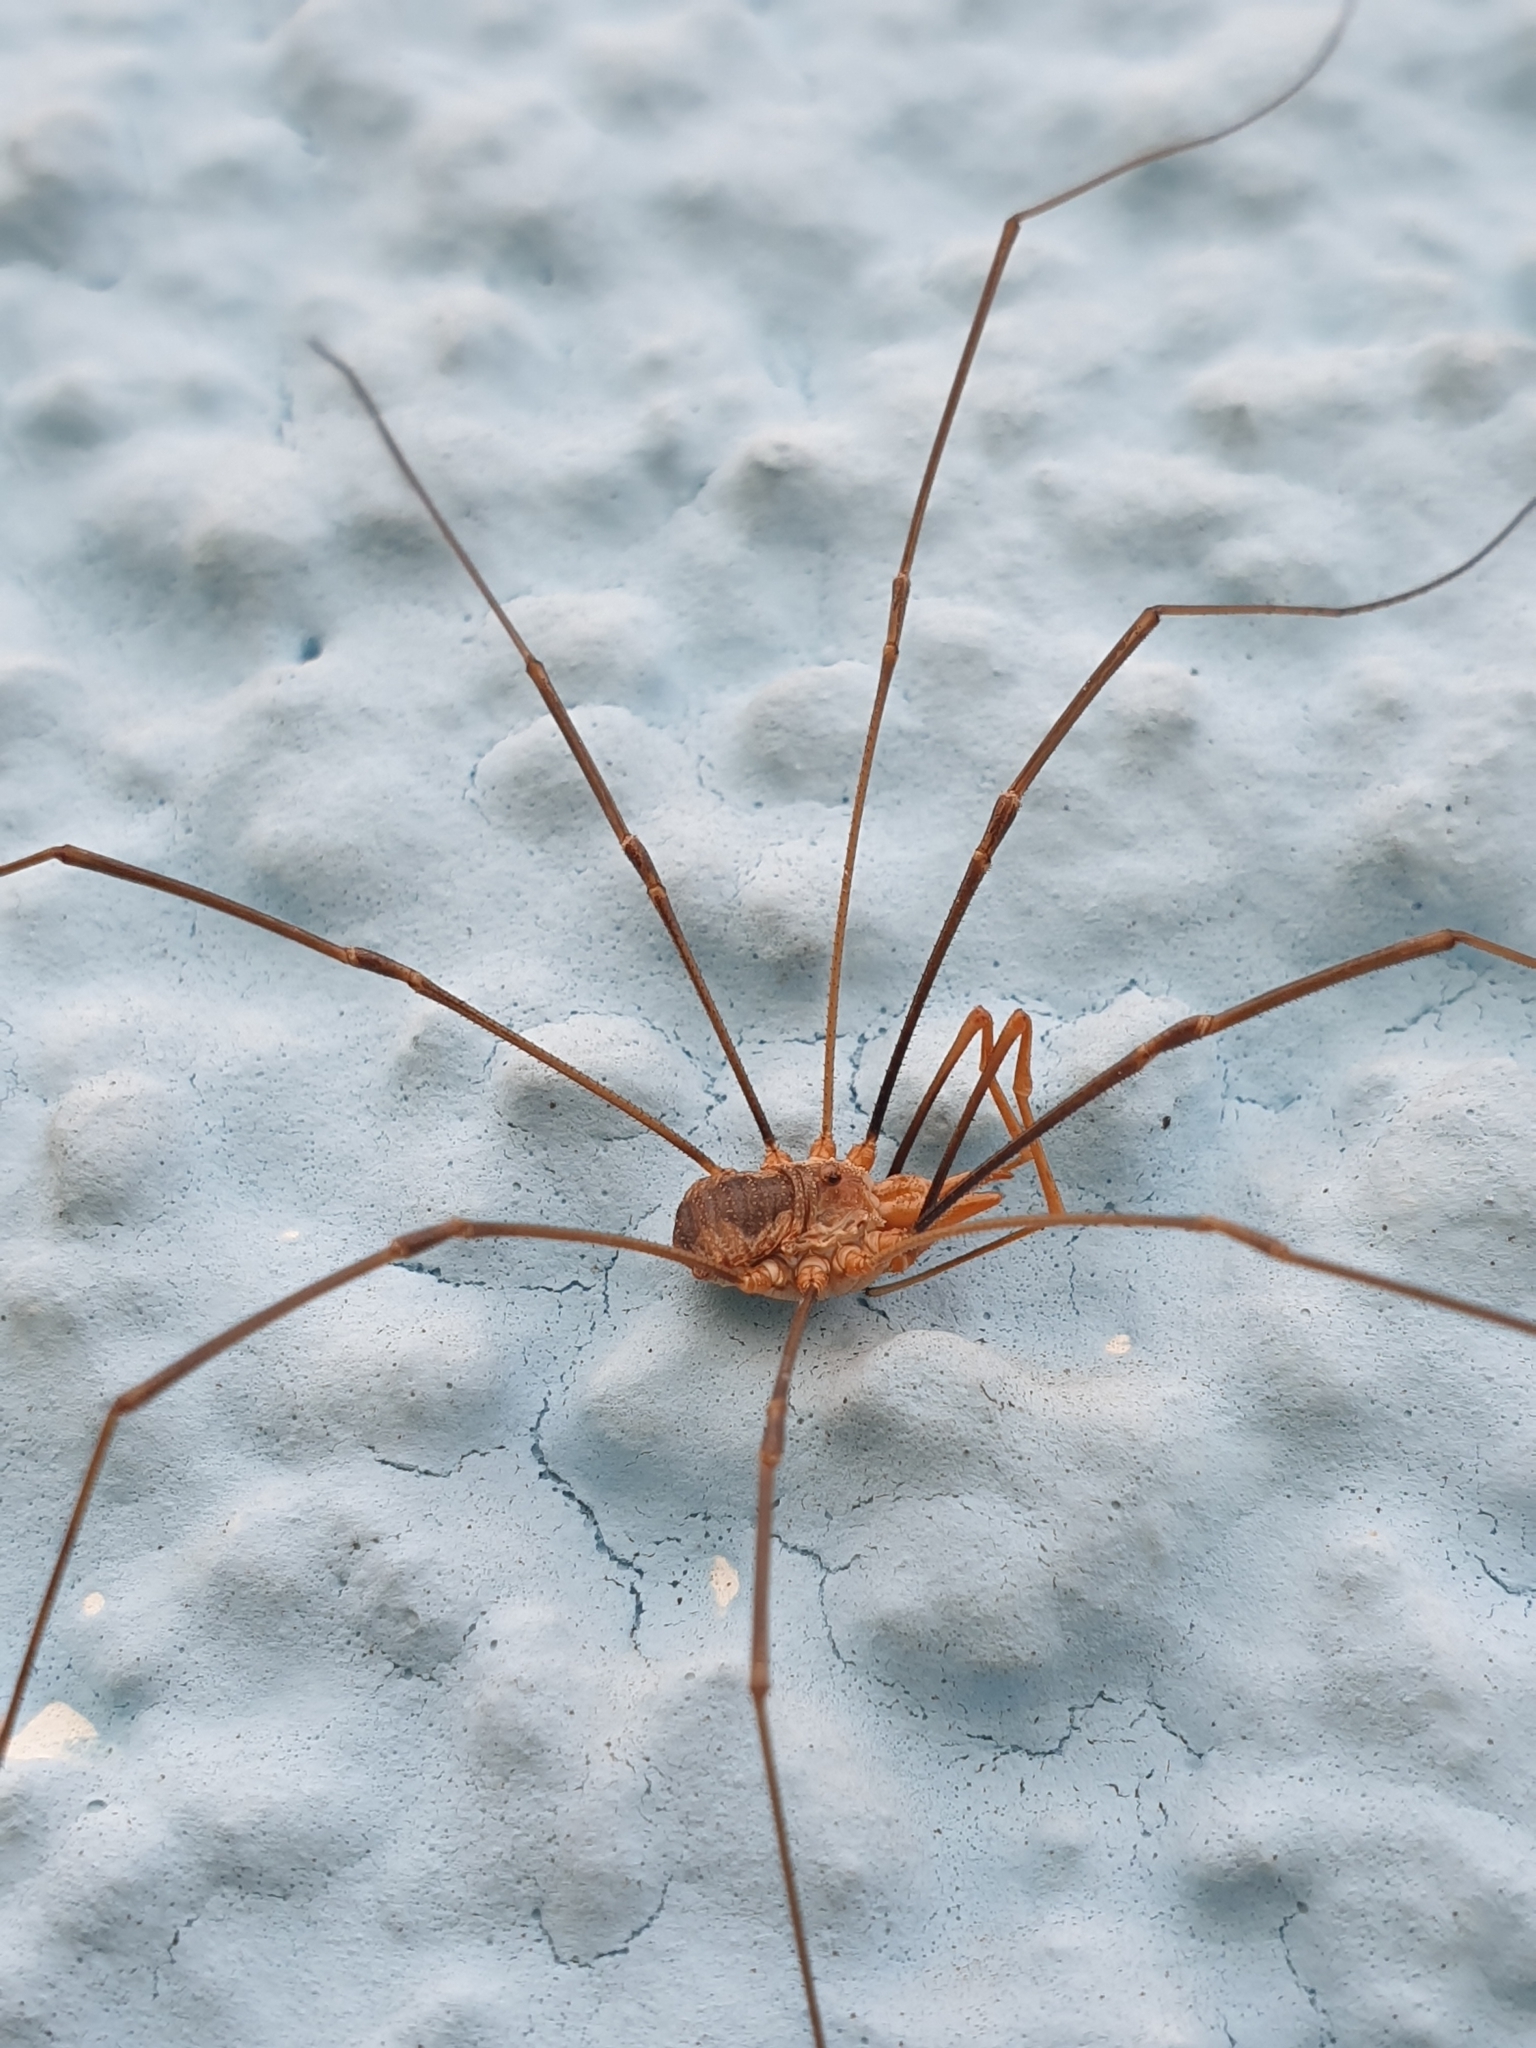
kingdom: Animalia
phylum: Arthropoda
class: Arachnida
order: Opiliones
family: Phalangiidae
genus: Phalangium
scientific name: Phalangium opilio
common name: Daddy longleg
